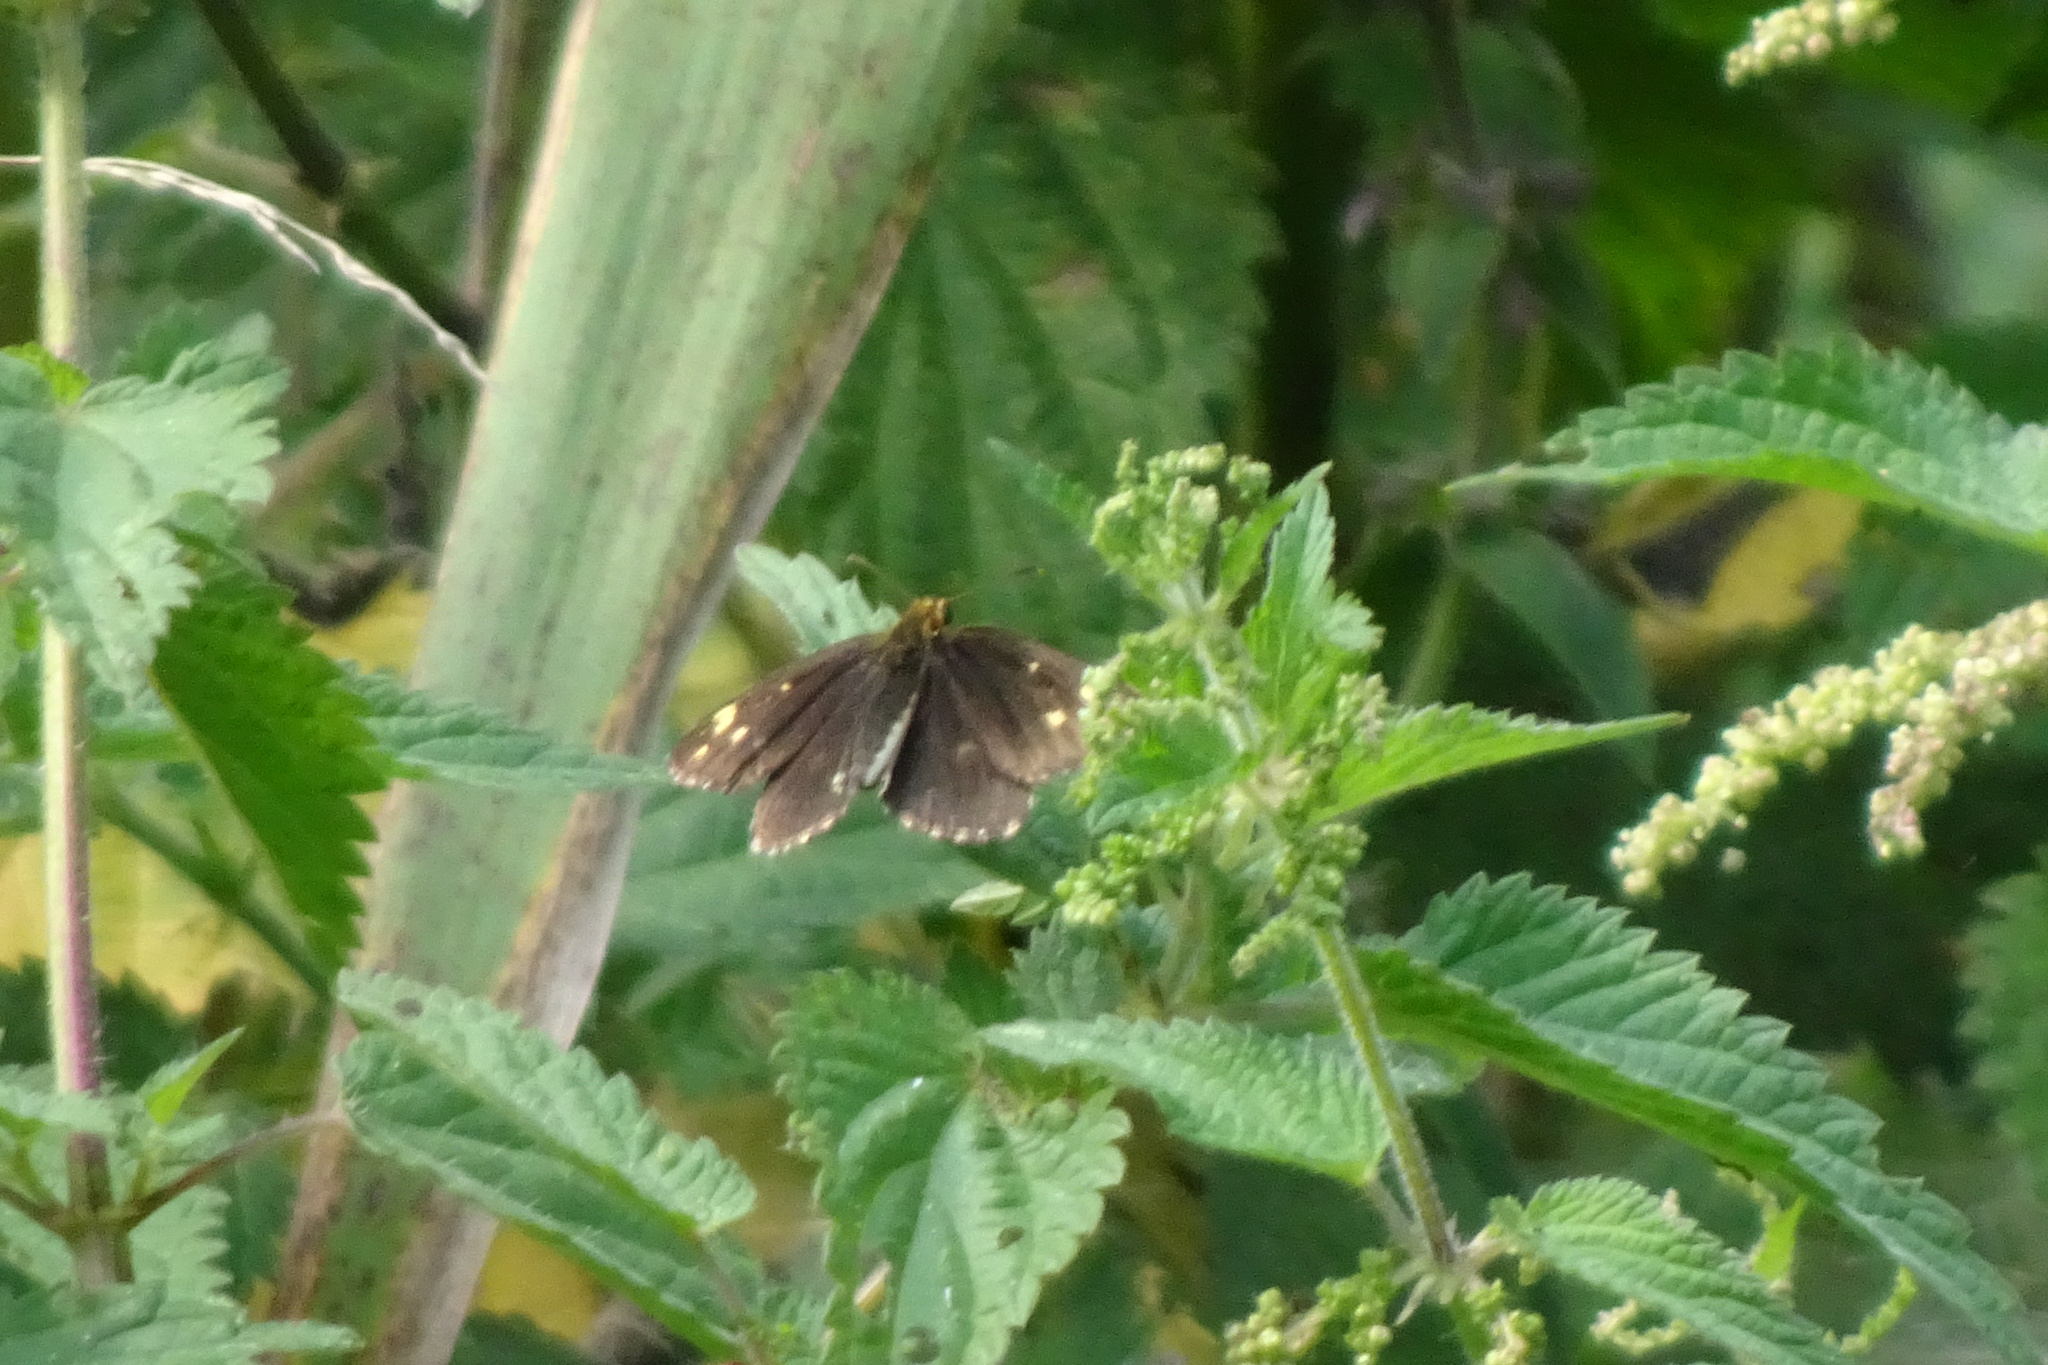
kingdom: Animalia
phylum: Arthropoda
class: Insecta
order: Lepidoptera
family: Hesperiidae
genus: Heteropterus
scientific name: Heteropterus morpheus
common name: Large chequered skipper
